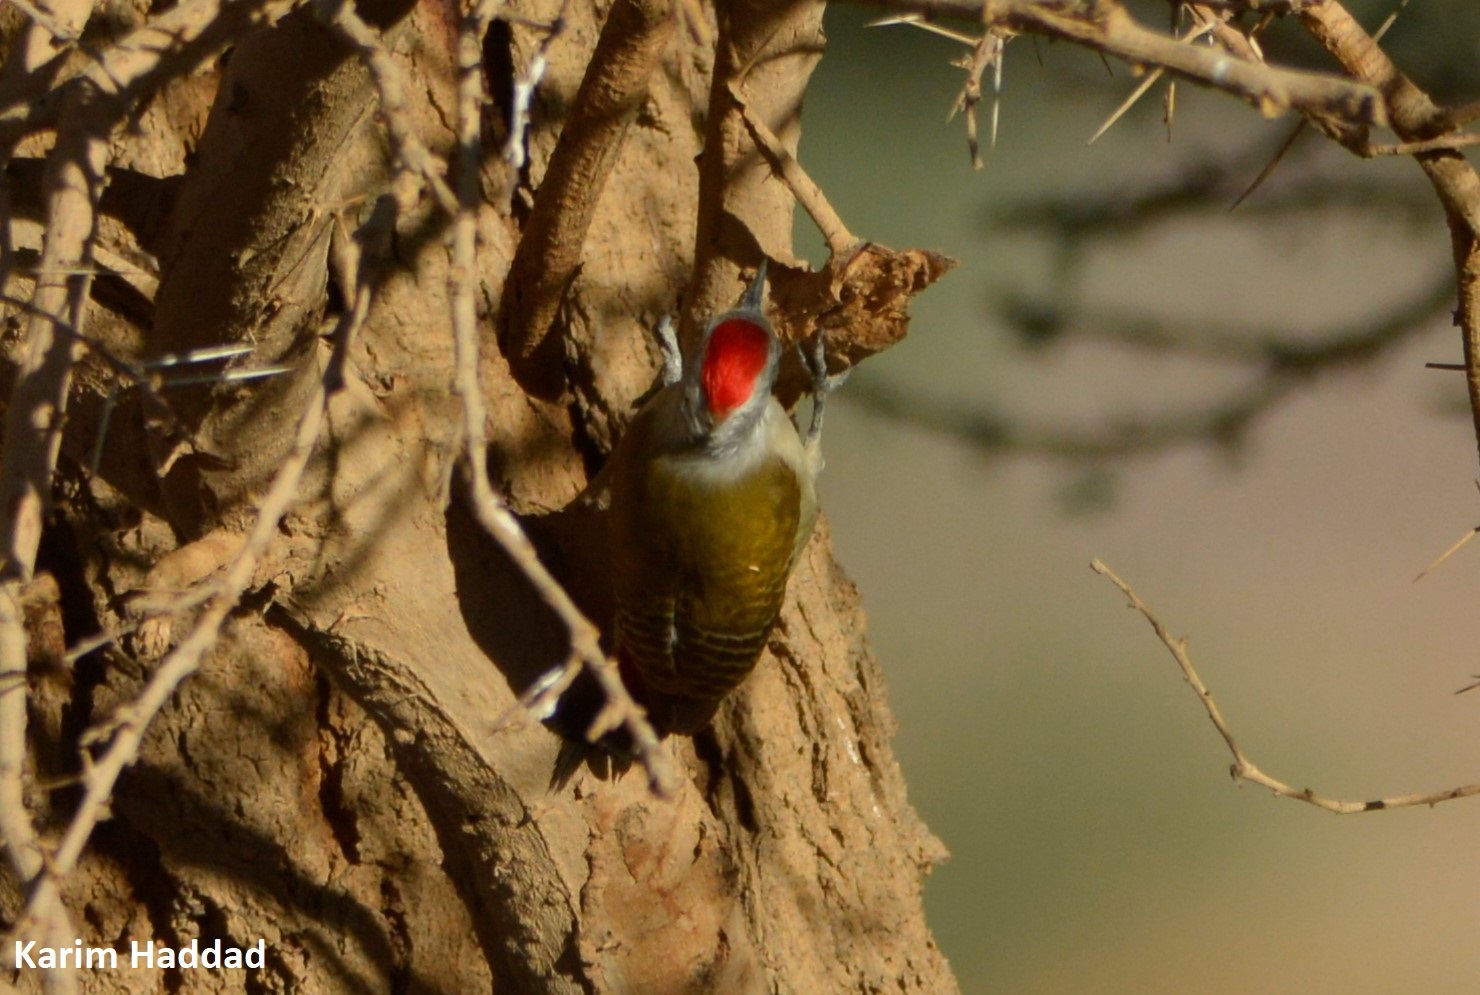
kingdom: Animalia
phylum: Chordata
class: Aves
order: Piciformes
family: Picidae
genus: Dendropicos
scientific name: Dendropicos goertae
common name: African grey woodpecker
